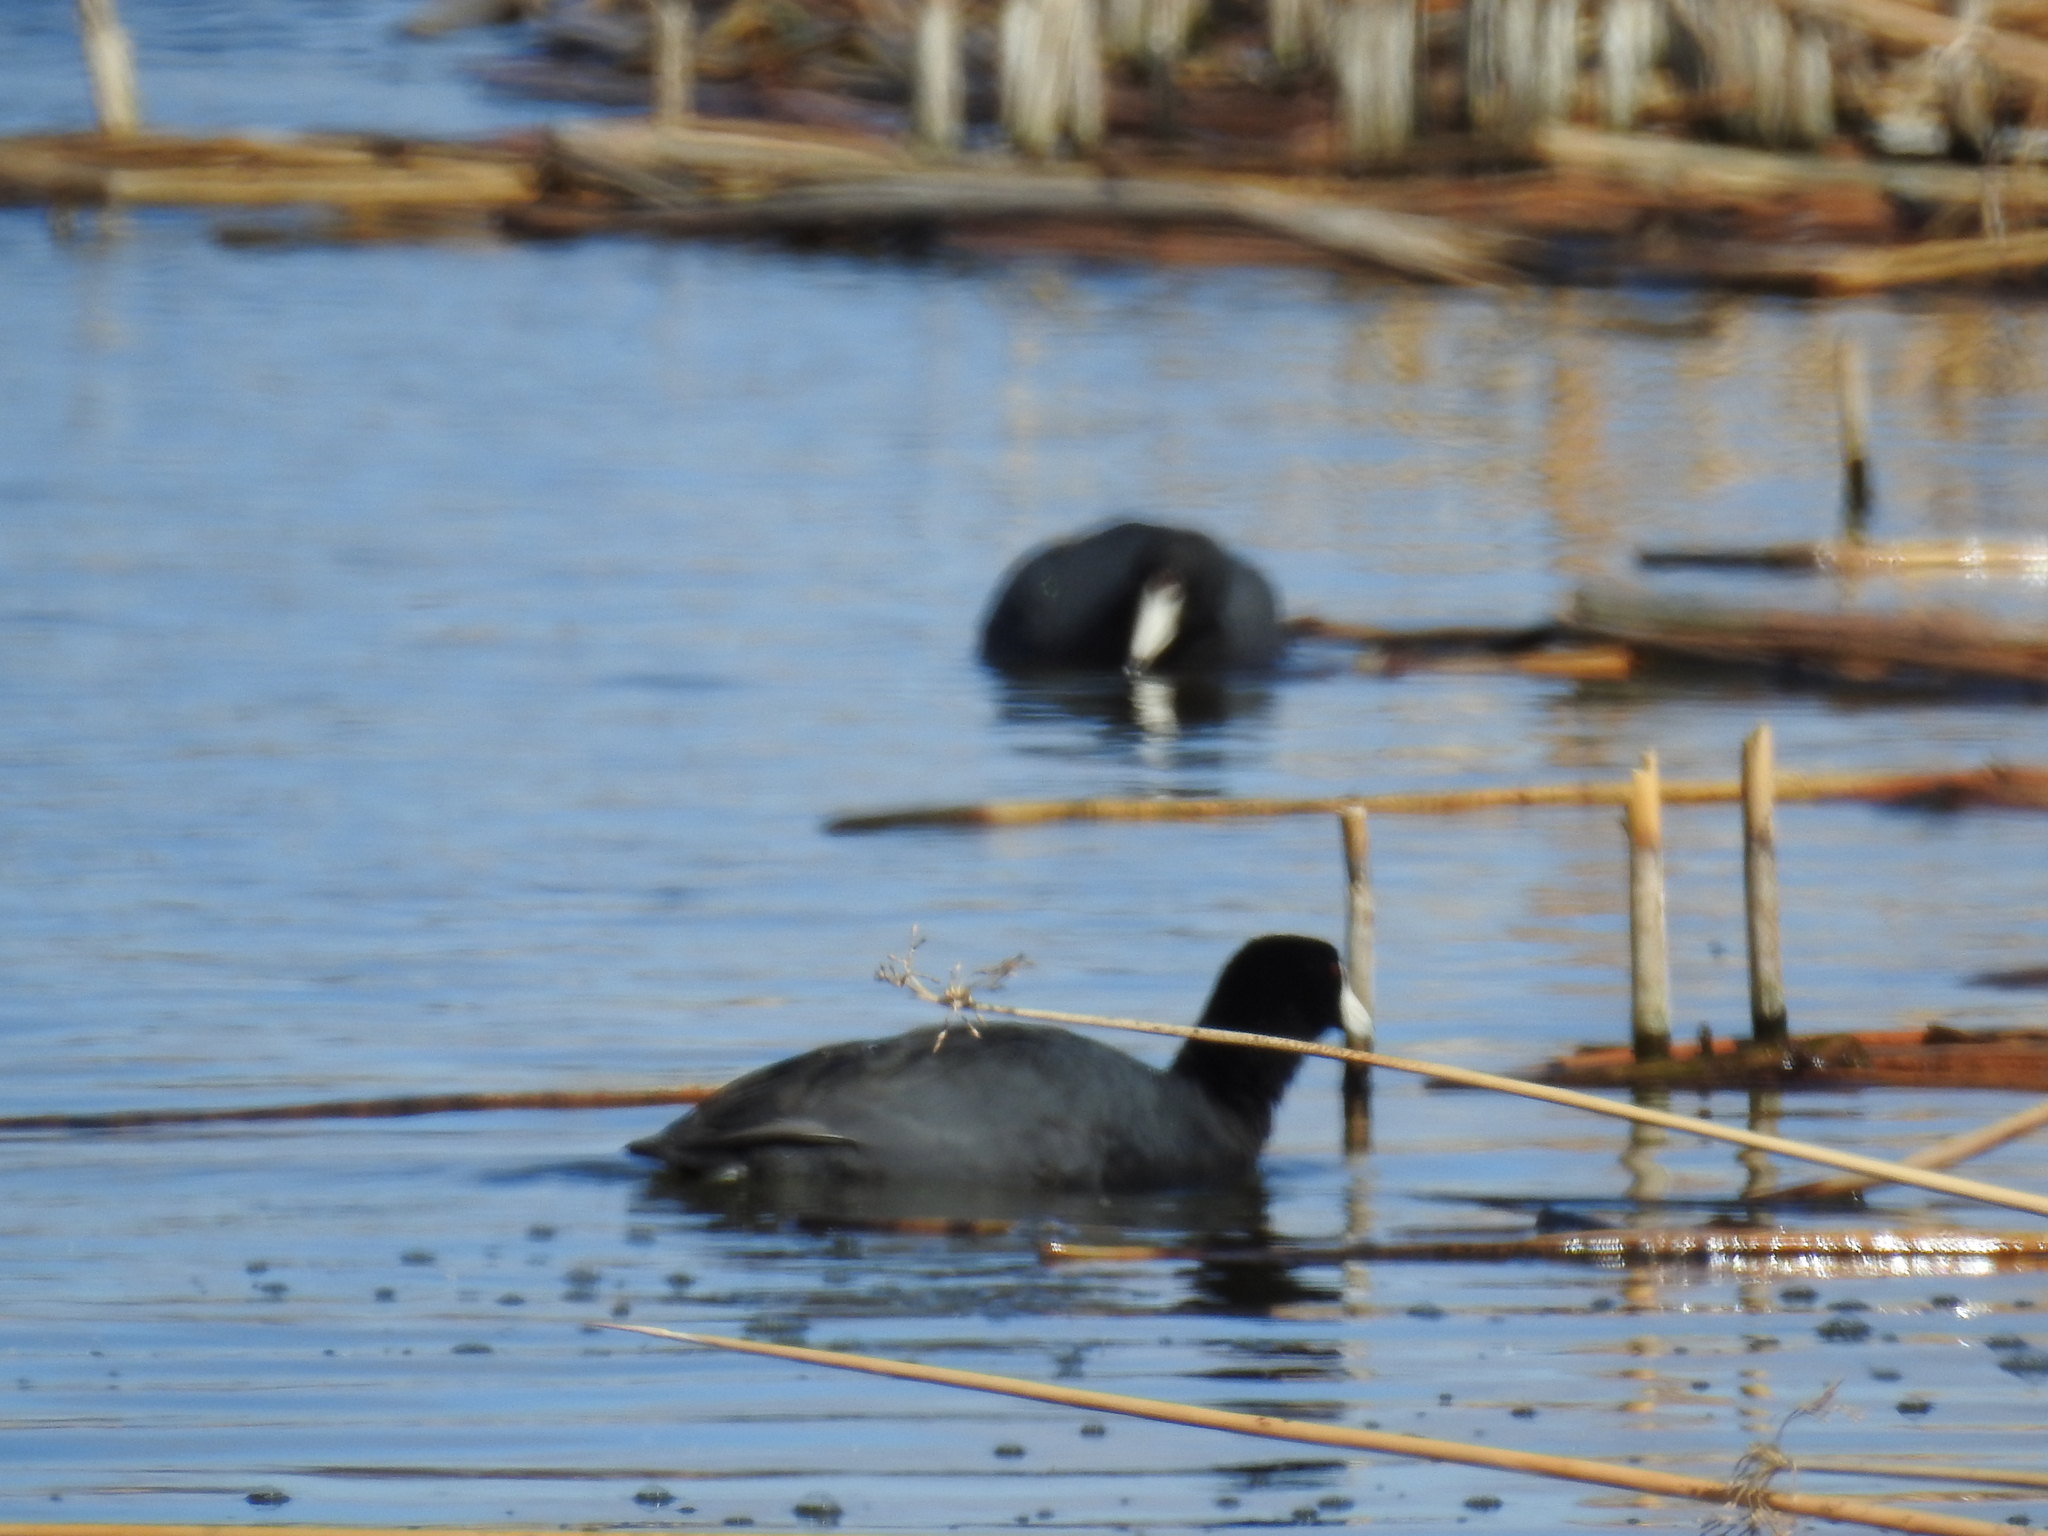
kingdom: Animalia
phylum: Chordata
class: Aves
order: Gruiformes
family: Rallidae
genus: Fulica
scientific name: Fulica americana
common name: American coot
